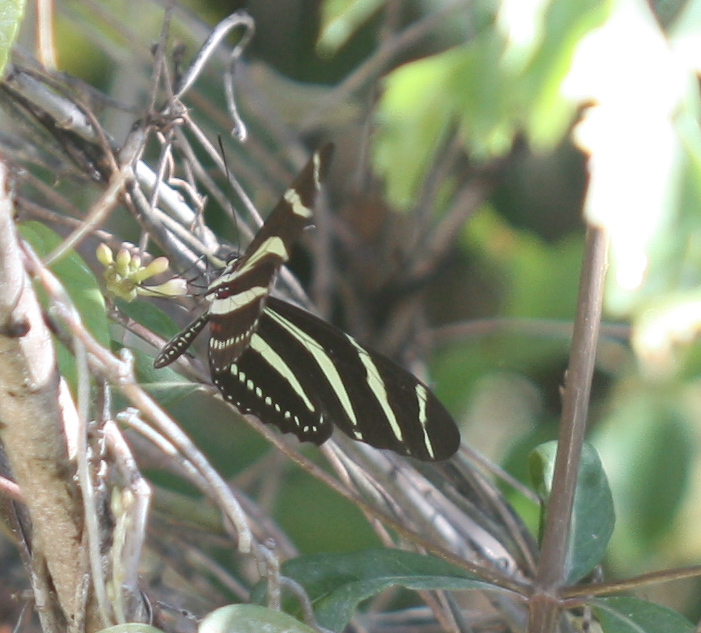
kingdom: Animalia
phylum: Arthropoda
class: Insecta
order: Lepidoptera
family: Nymphalidae
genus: Heliconius
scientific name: Heliconius charithonia
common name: Zebra long wing
